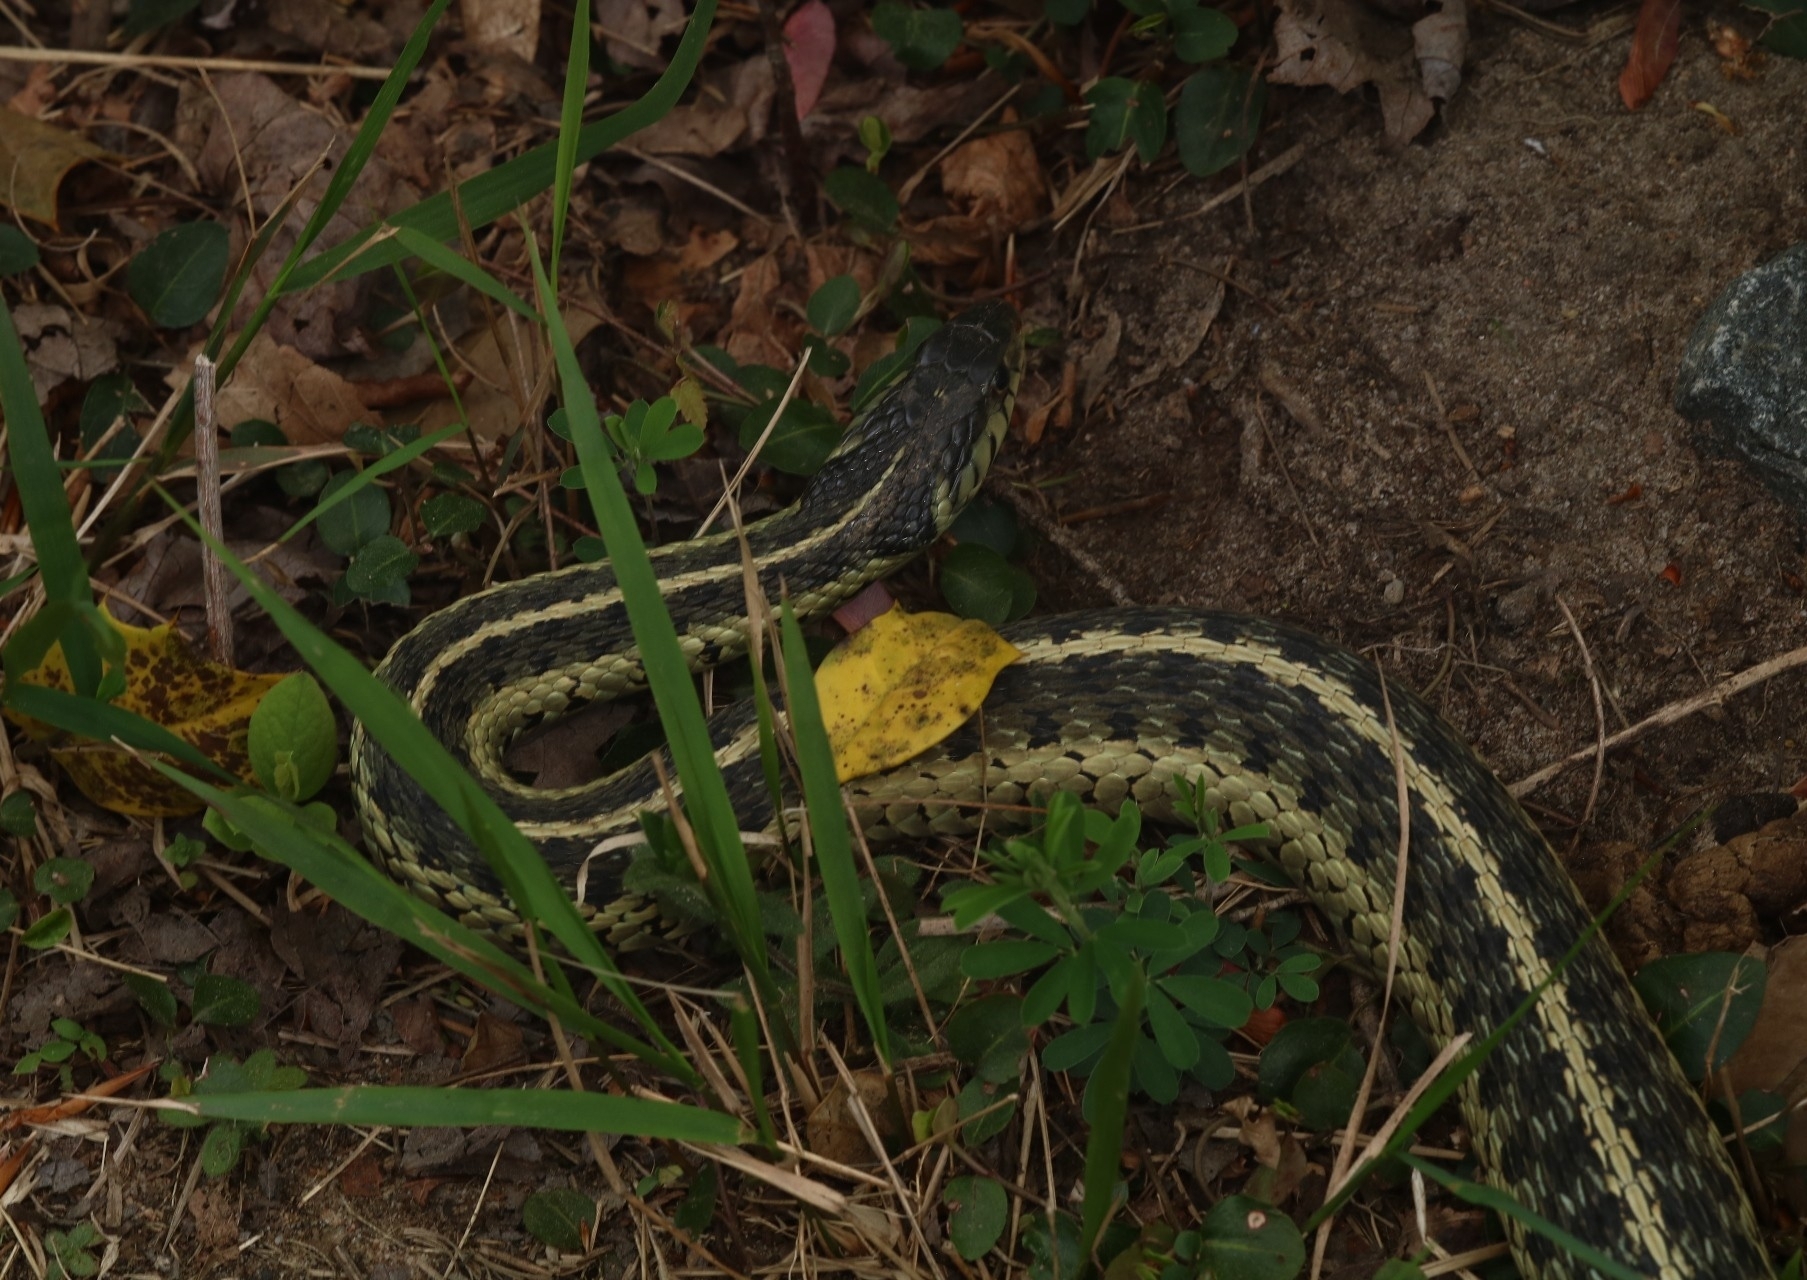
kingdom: Animalia
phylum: Chordata
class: Squamata
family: Colubridae
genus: Thamnophis
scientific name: Thamnophis sirtalis
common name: Common garter snake
